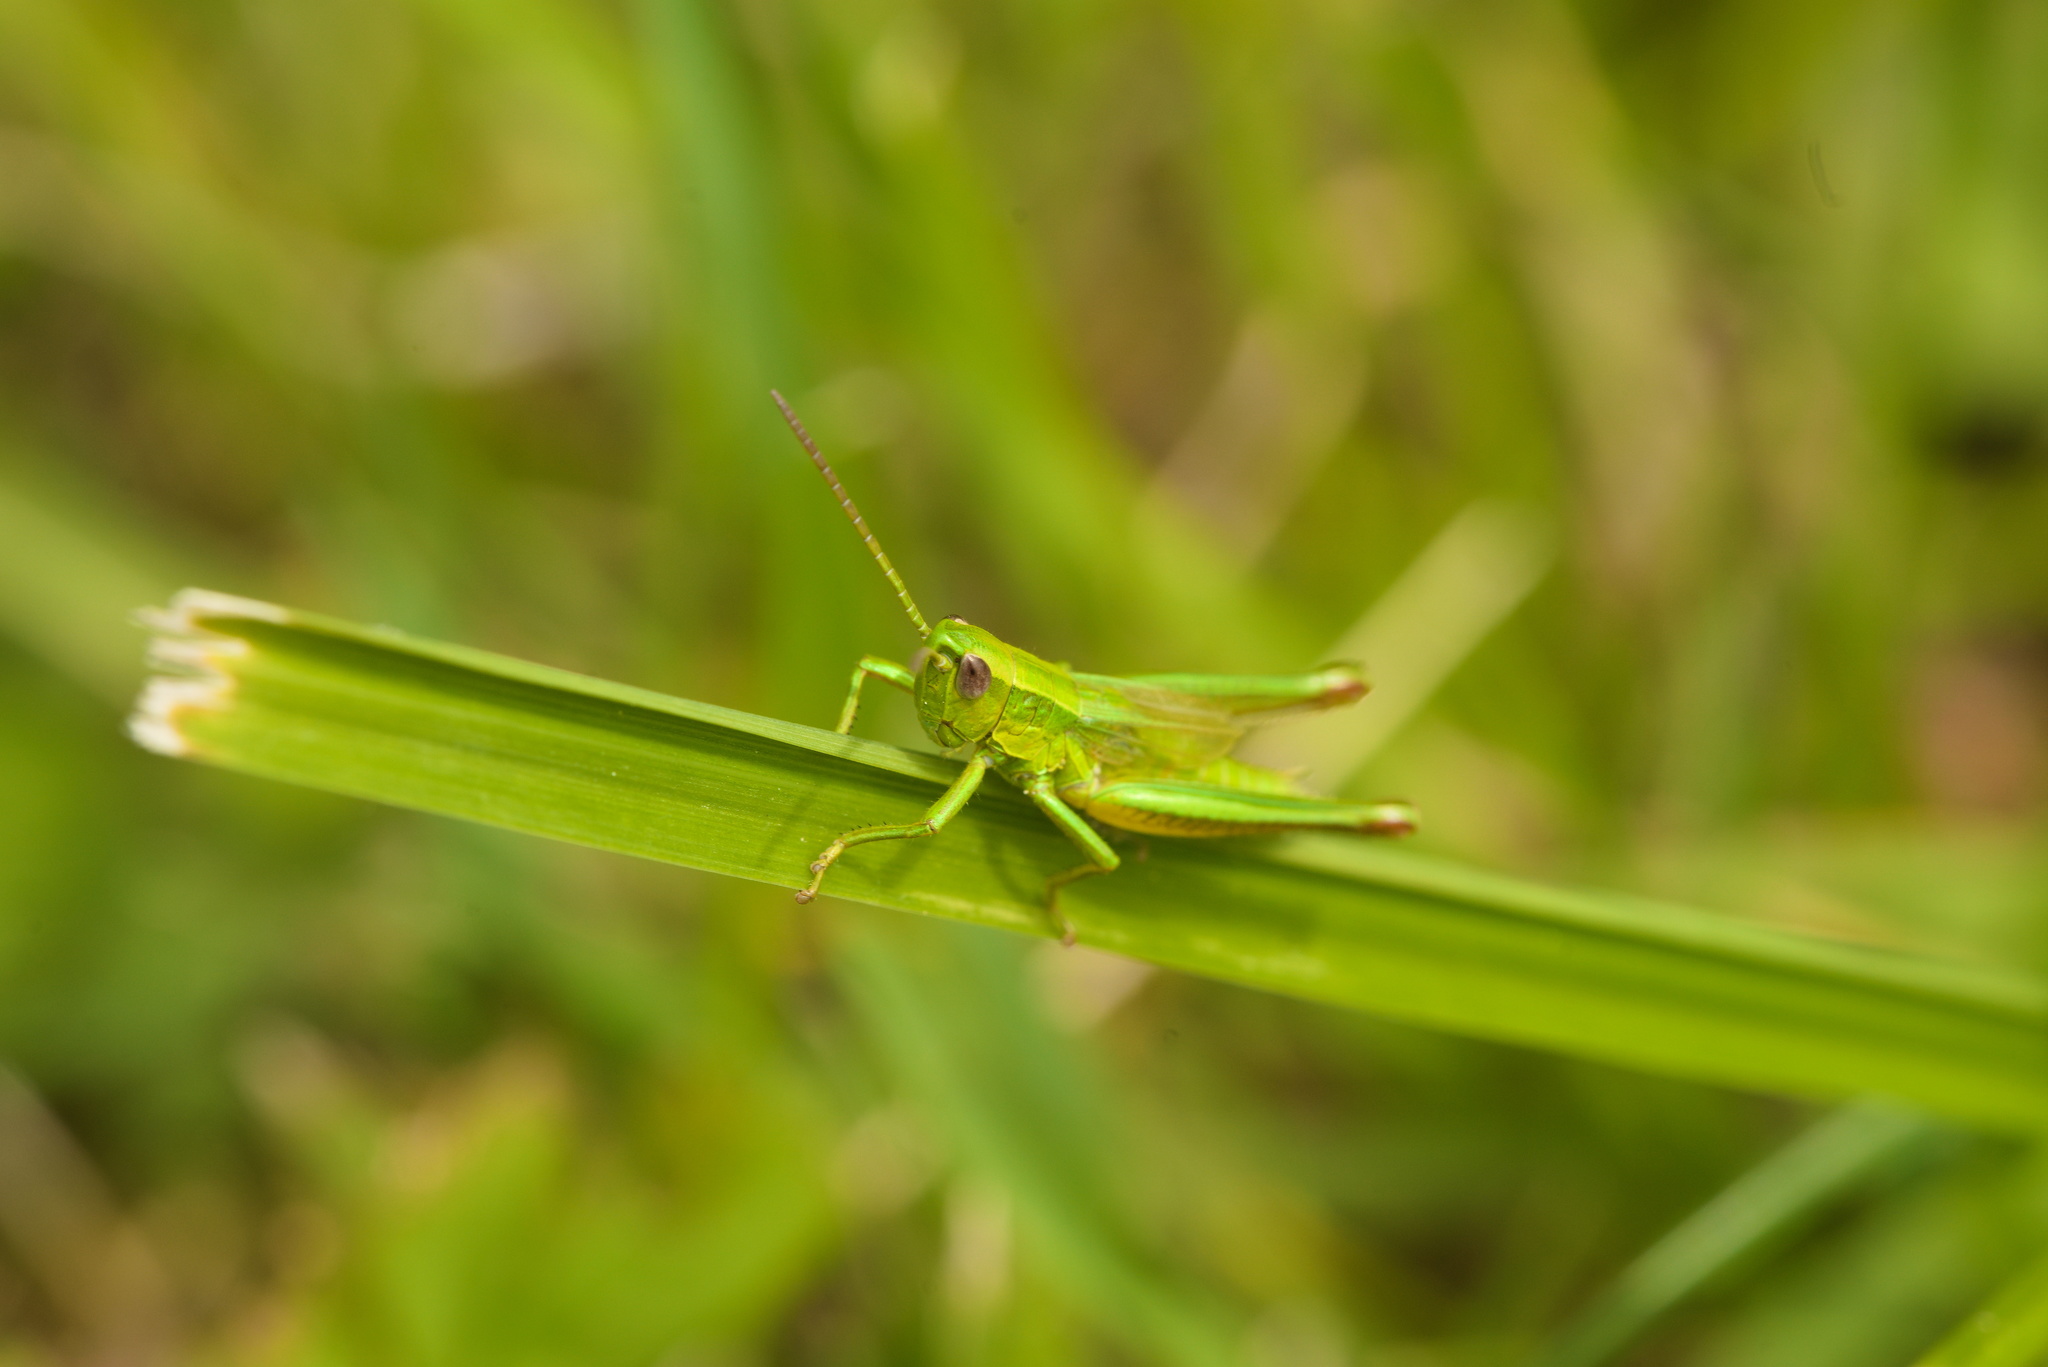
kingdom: Animalia
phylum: Arthropoda
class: Insecta
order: Orthoptera
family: Acrididae
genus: Euthystira
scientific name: Euthystira brachyptera
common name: Small gold grasshopper
